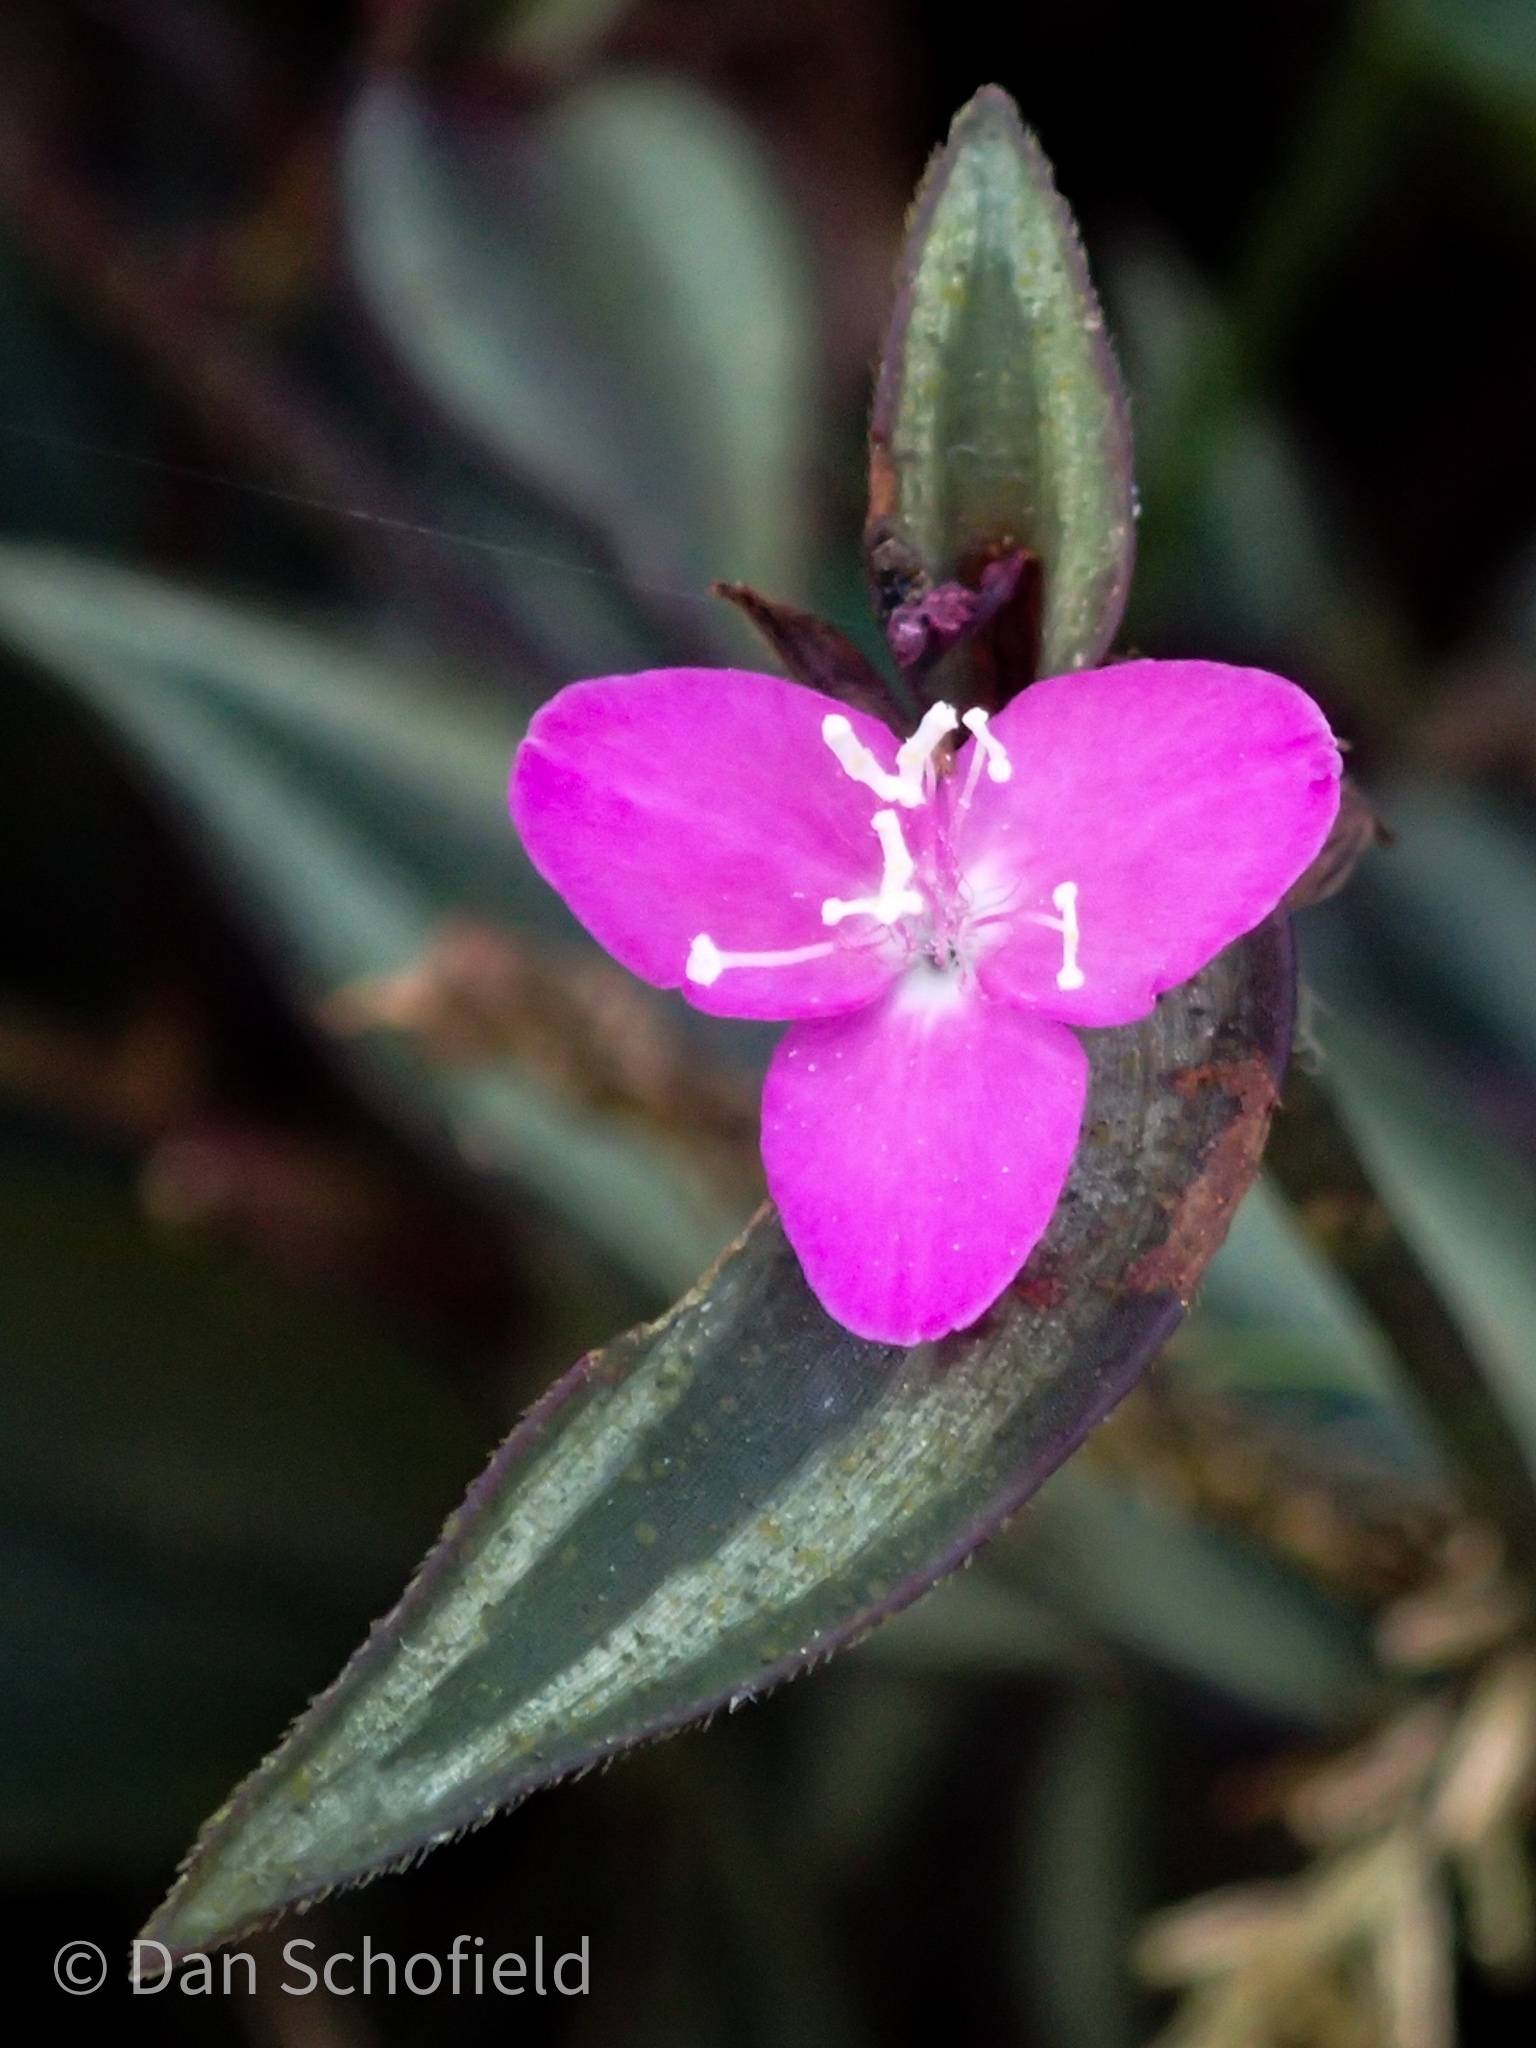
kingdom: Plantae
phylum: Tracheophyta
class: Liliopsida
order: Commelinales
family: Commelinaceae
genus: Tradescantia
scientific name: Tradescantia zebrina
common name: Inchplant
